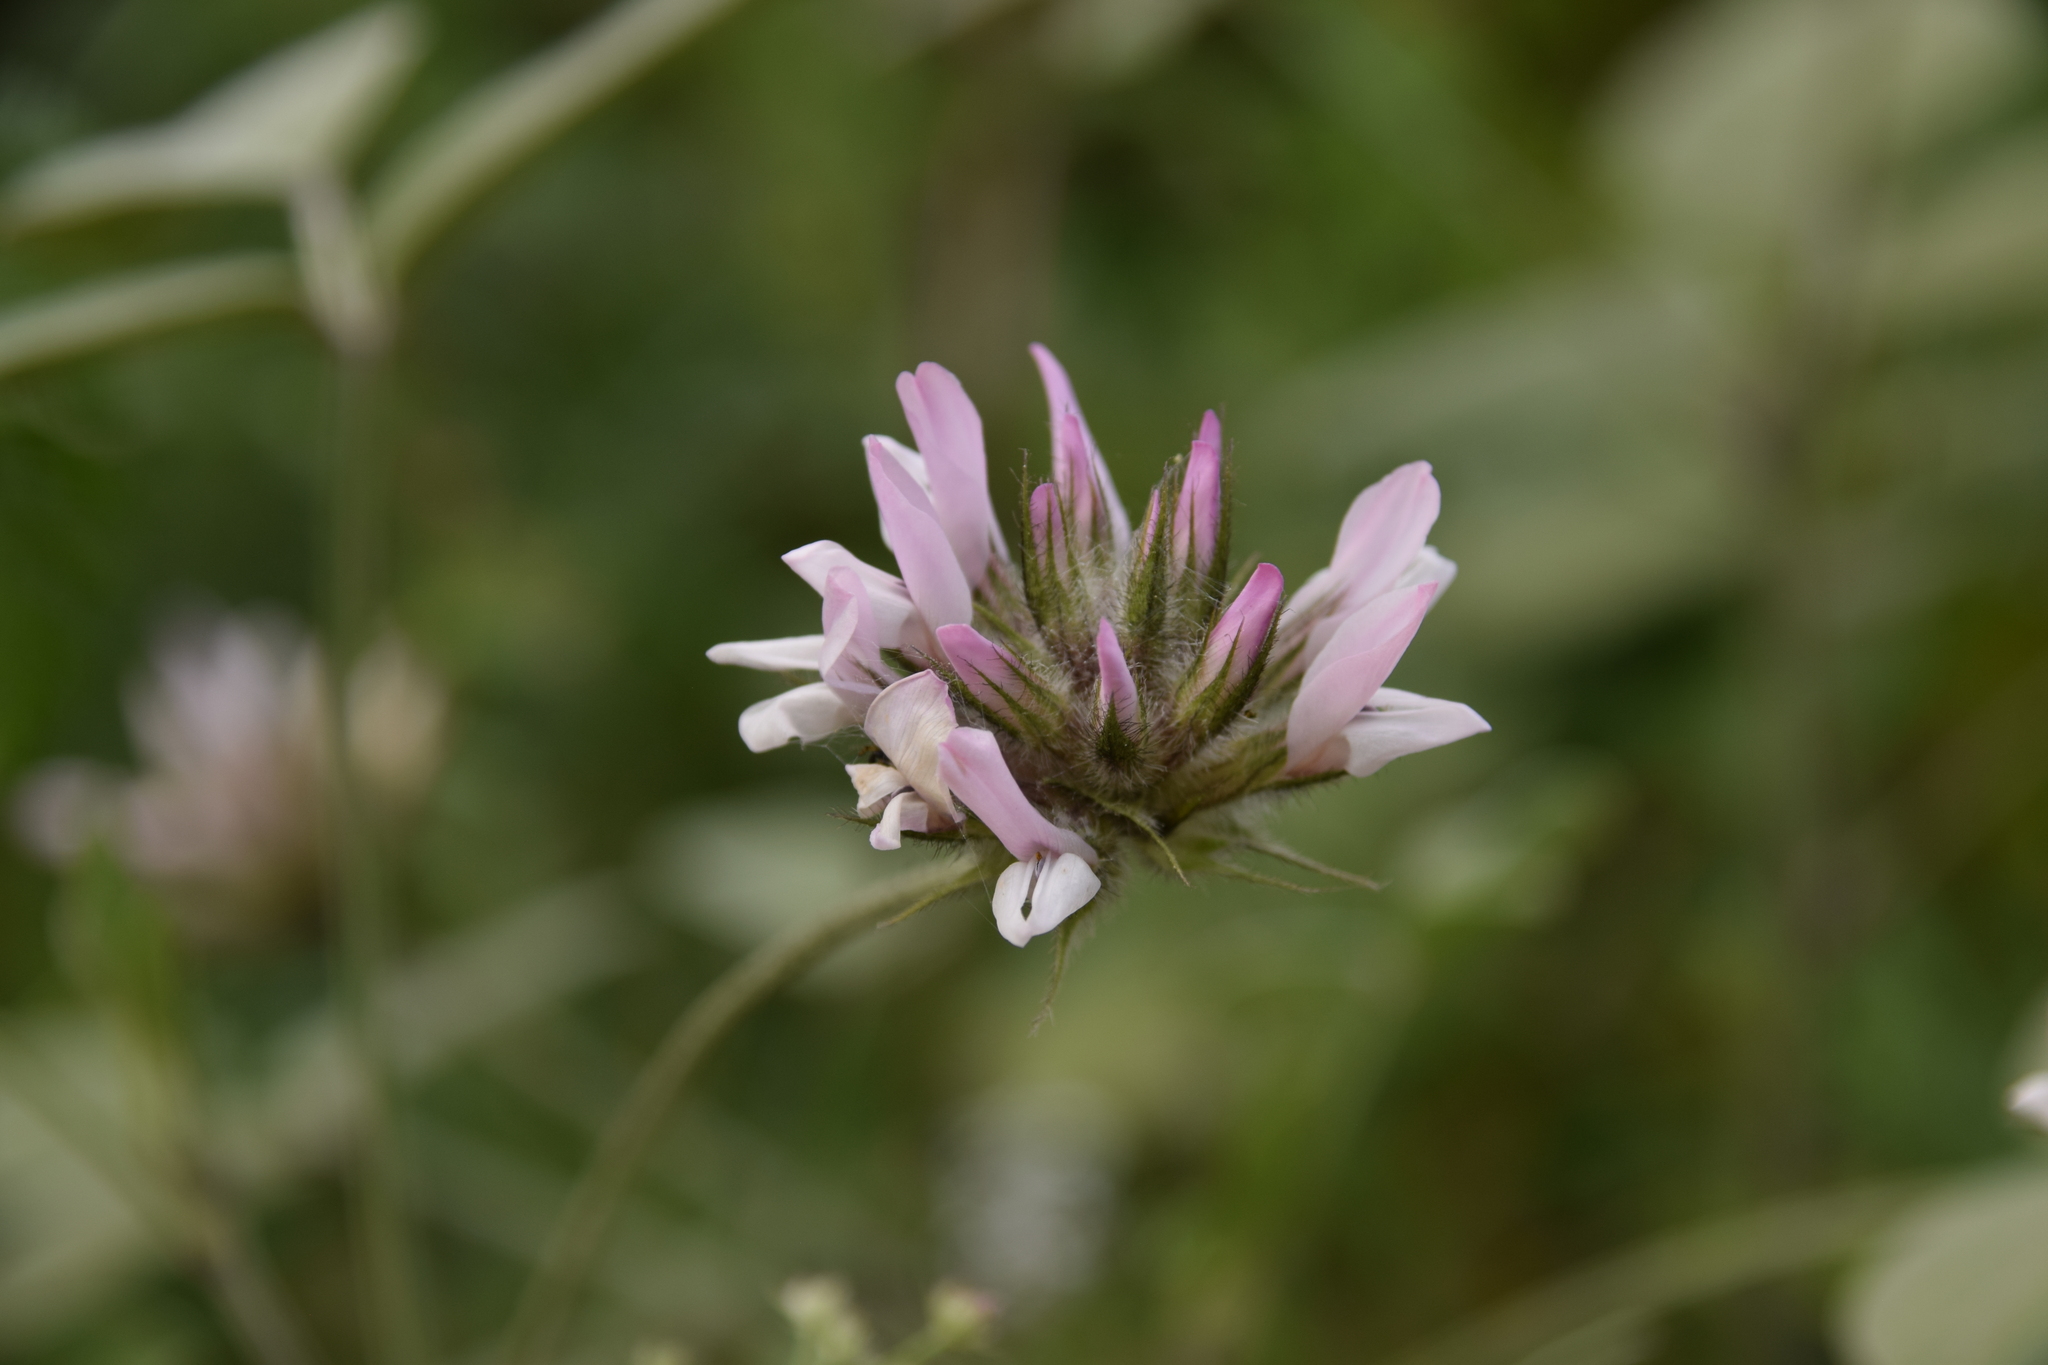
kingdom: Plantae
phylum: Tracheophyta
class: Magnoliopsida
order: Fabales
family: Fabaceae
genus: Bituminaria
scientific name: Bituminaria bituminosa
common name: Arabian pea
